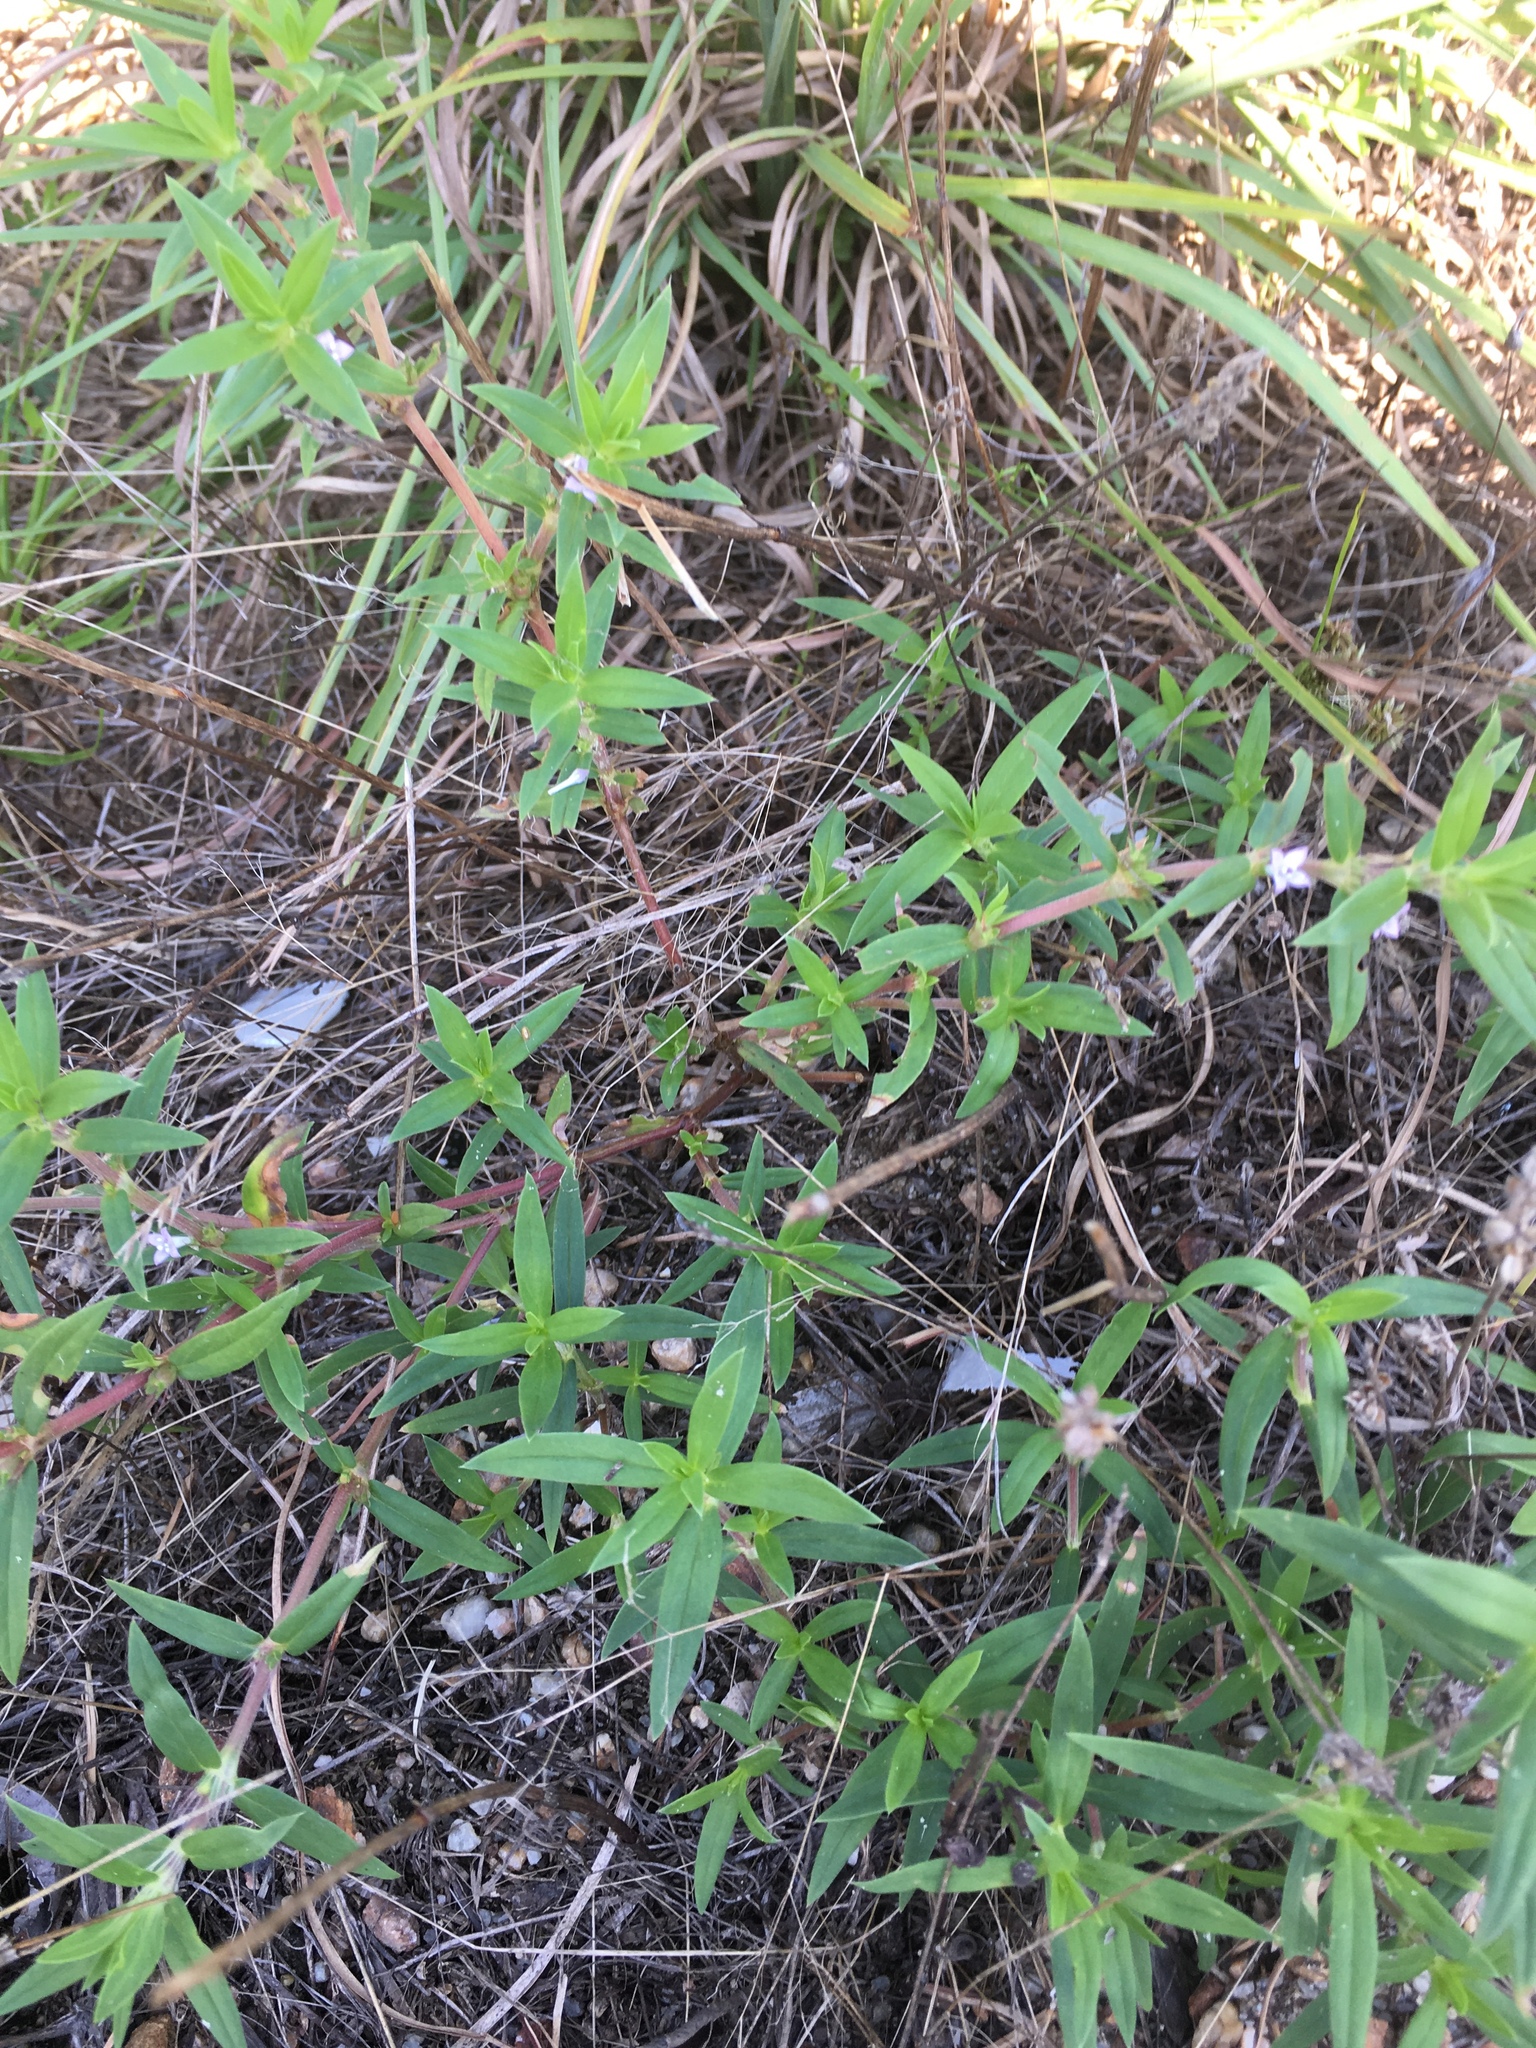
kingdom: Plantae
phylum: Tracheophyta
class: Magnoliopsida
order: Gentianales
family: Rubiaceae
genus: Hexasepalum
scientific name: Hexasepalum teres
